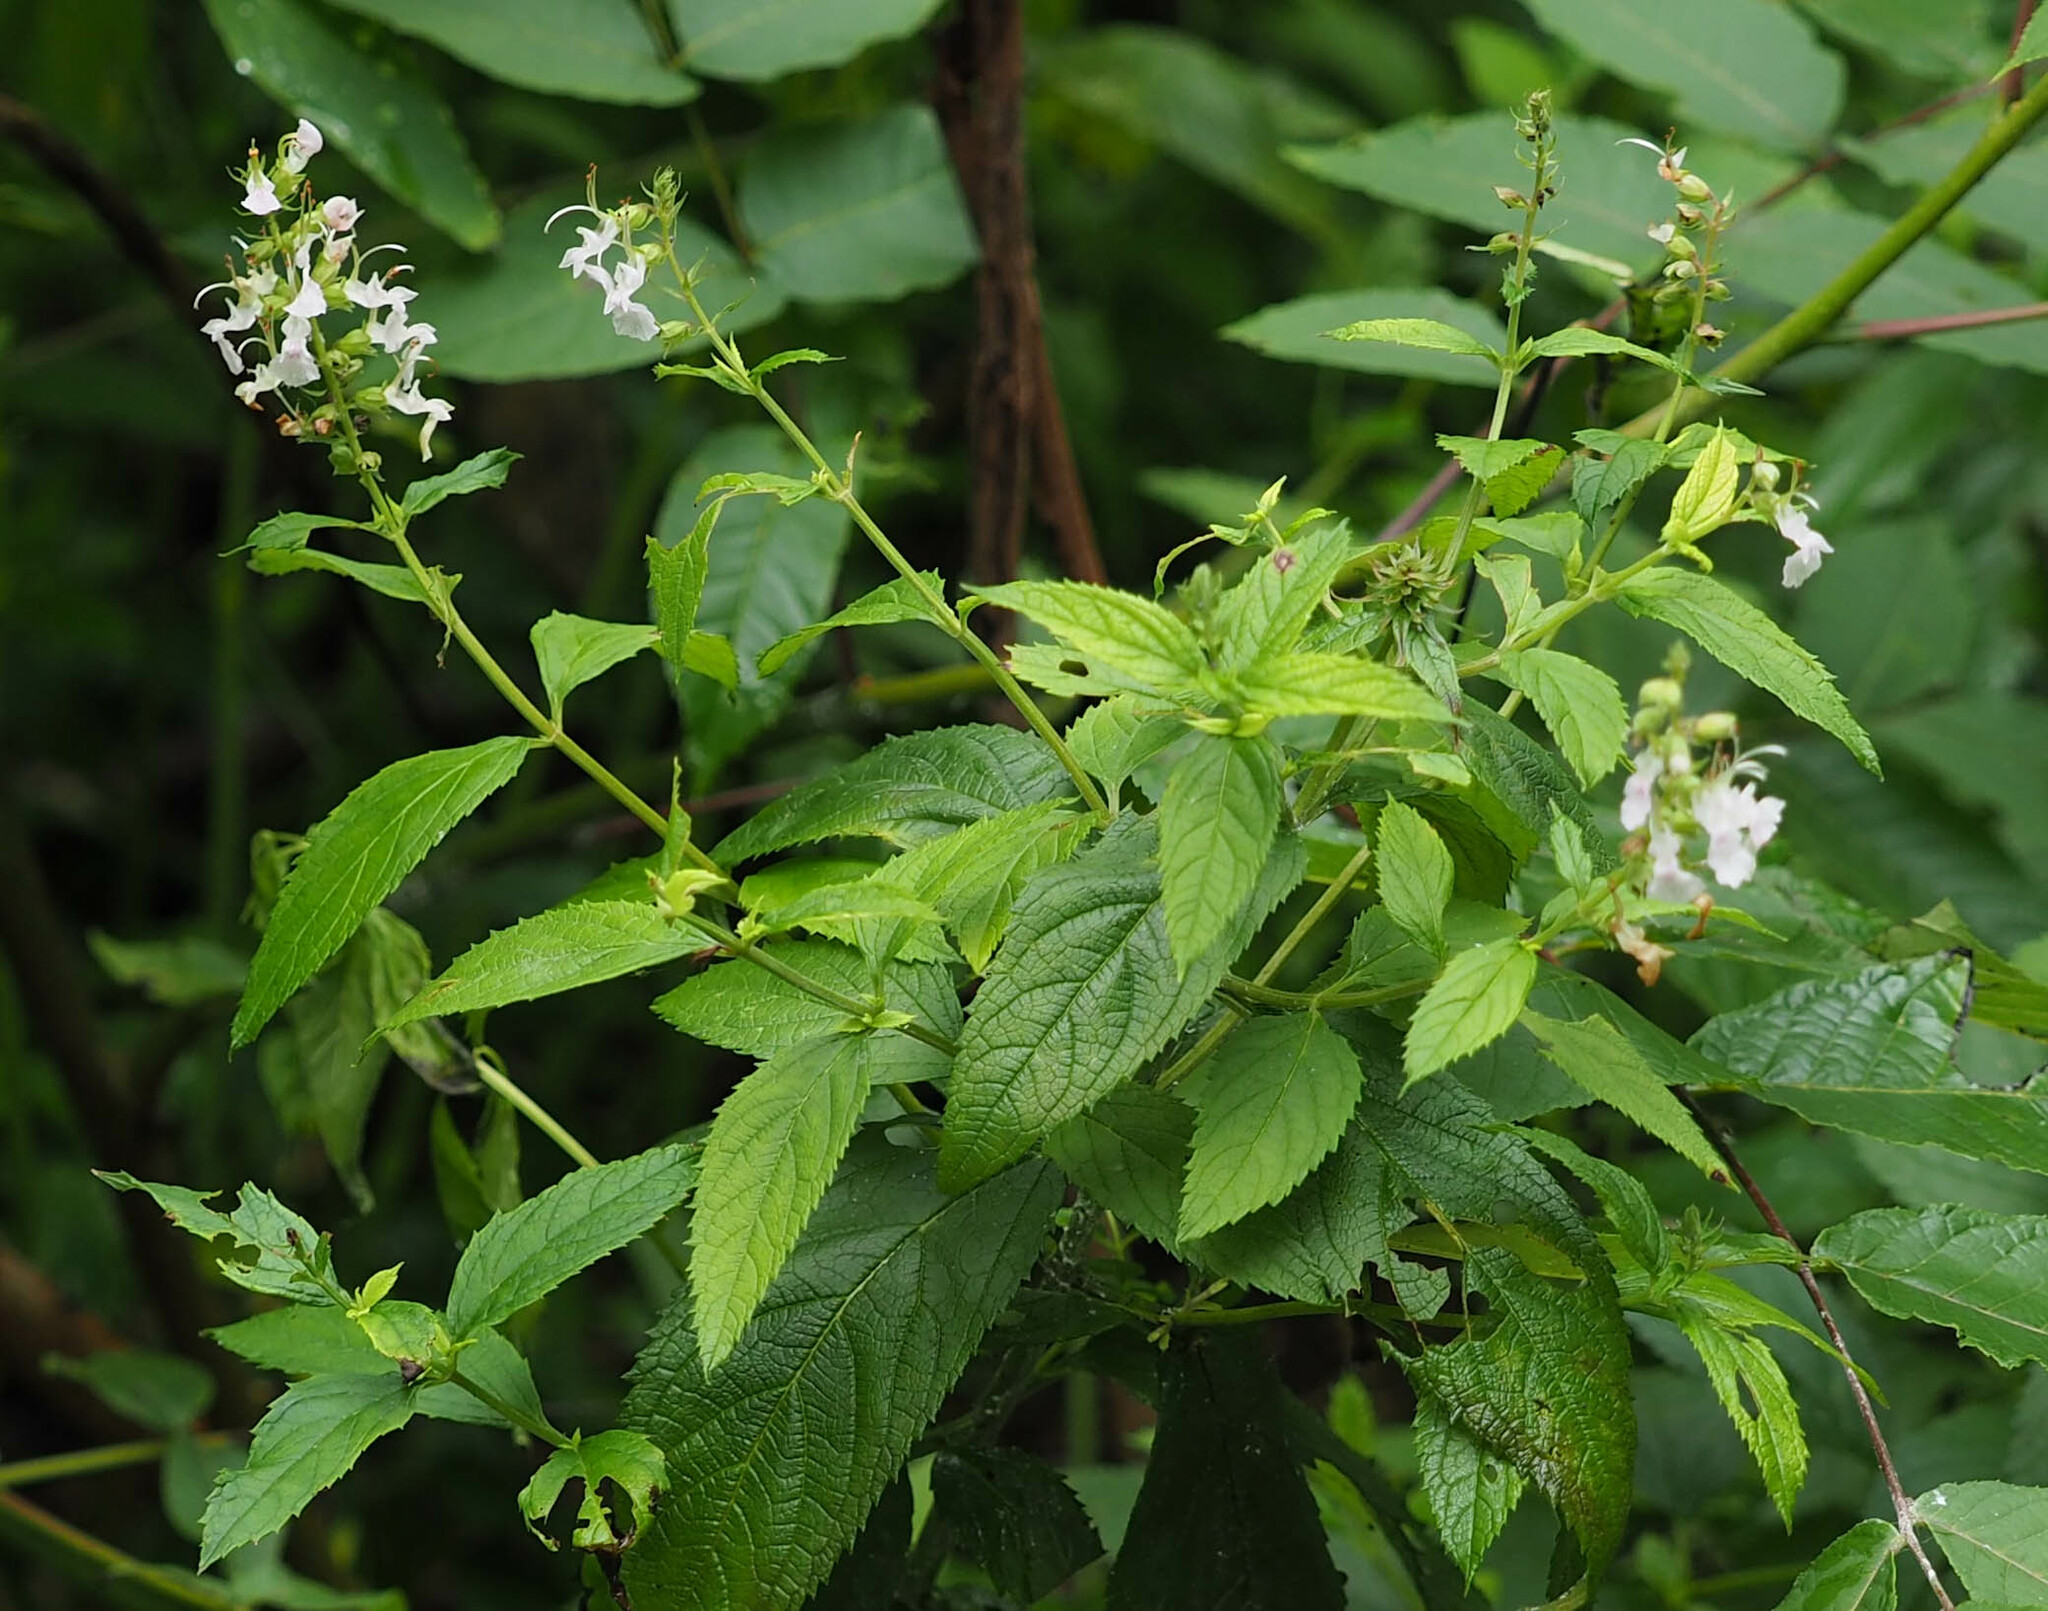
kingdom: Plantae
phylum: Tracheophyta
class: Magnoliopsida
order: Lamiales
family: Lamiaceae
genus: Teucrium
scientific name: Teucrium canadense
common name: American germander
